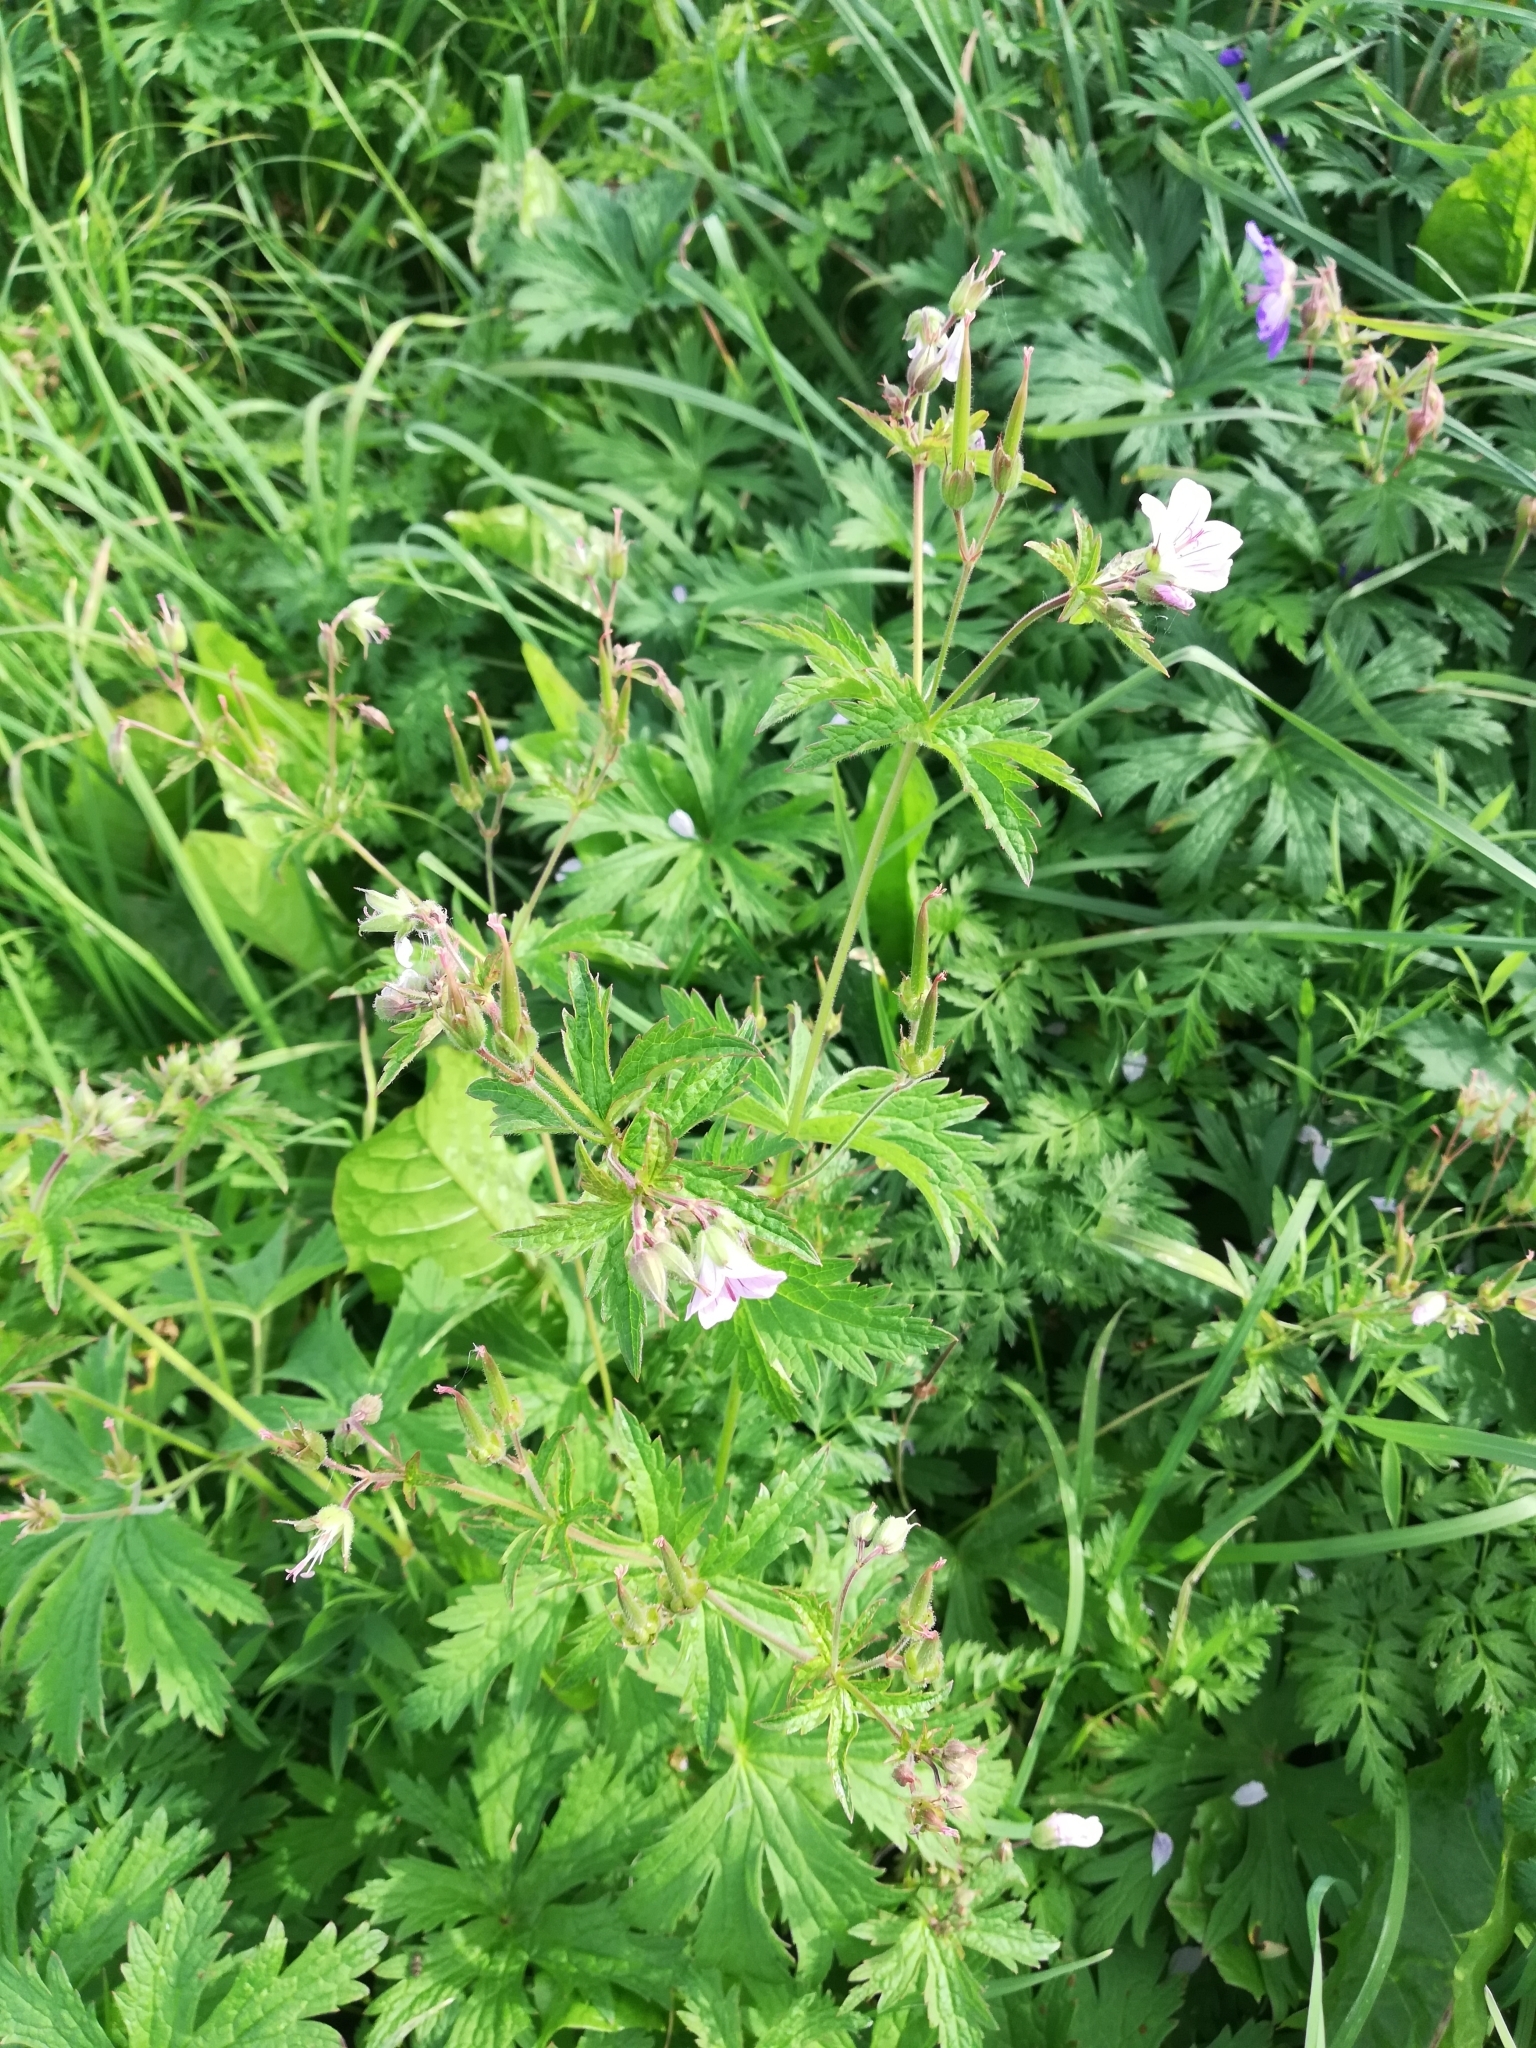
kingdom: Plantae
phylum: Tracheophyta
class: Magnoliopsida
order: Geraniales
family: Geraniaceae
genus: Geranium
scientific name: Geranium sylvaticum
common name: Wood crane's-bill
